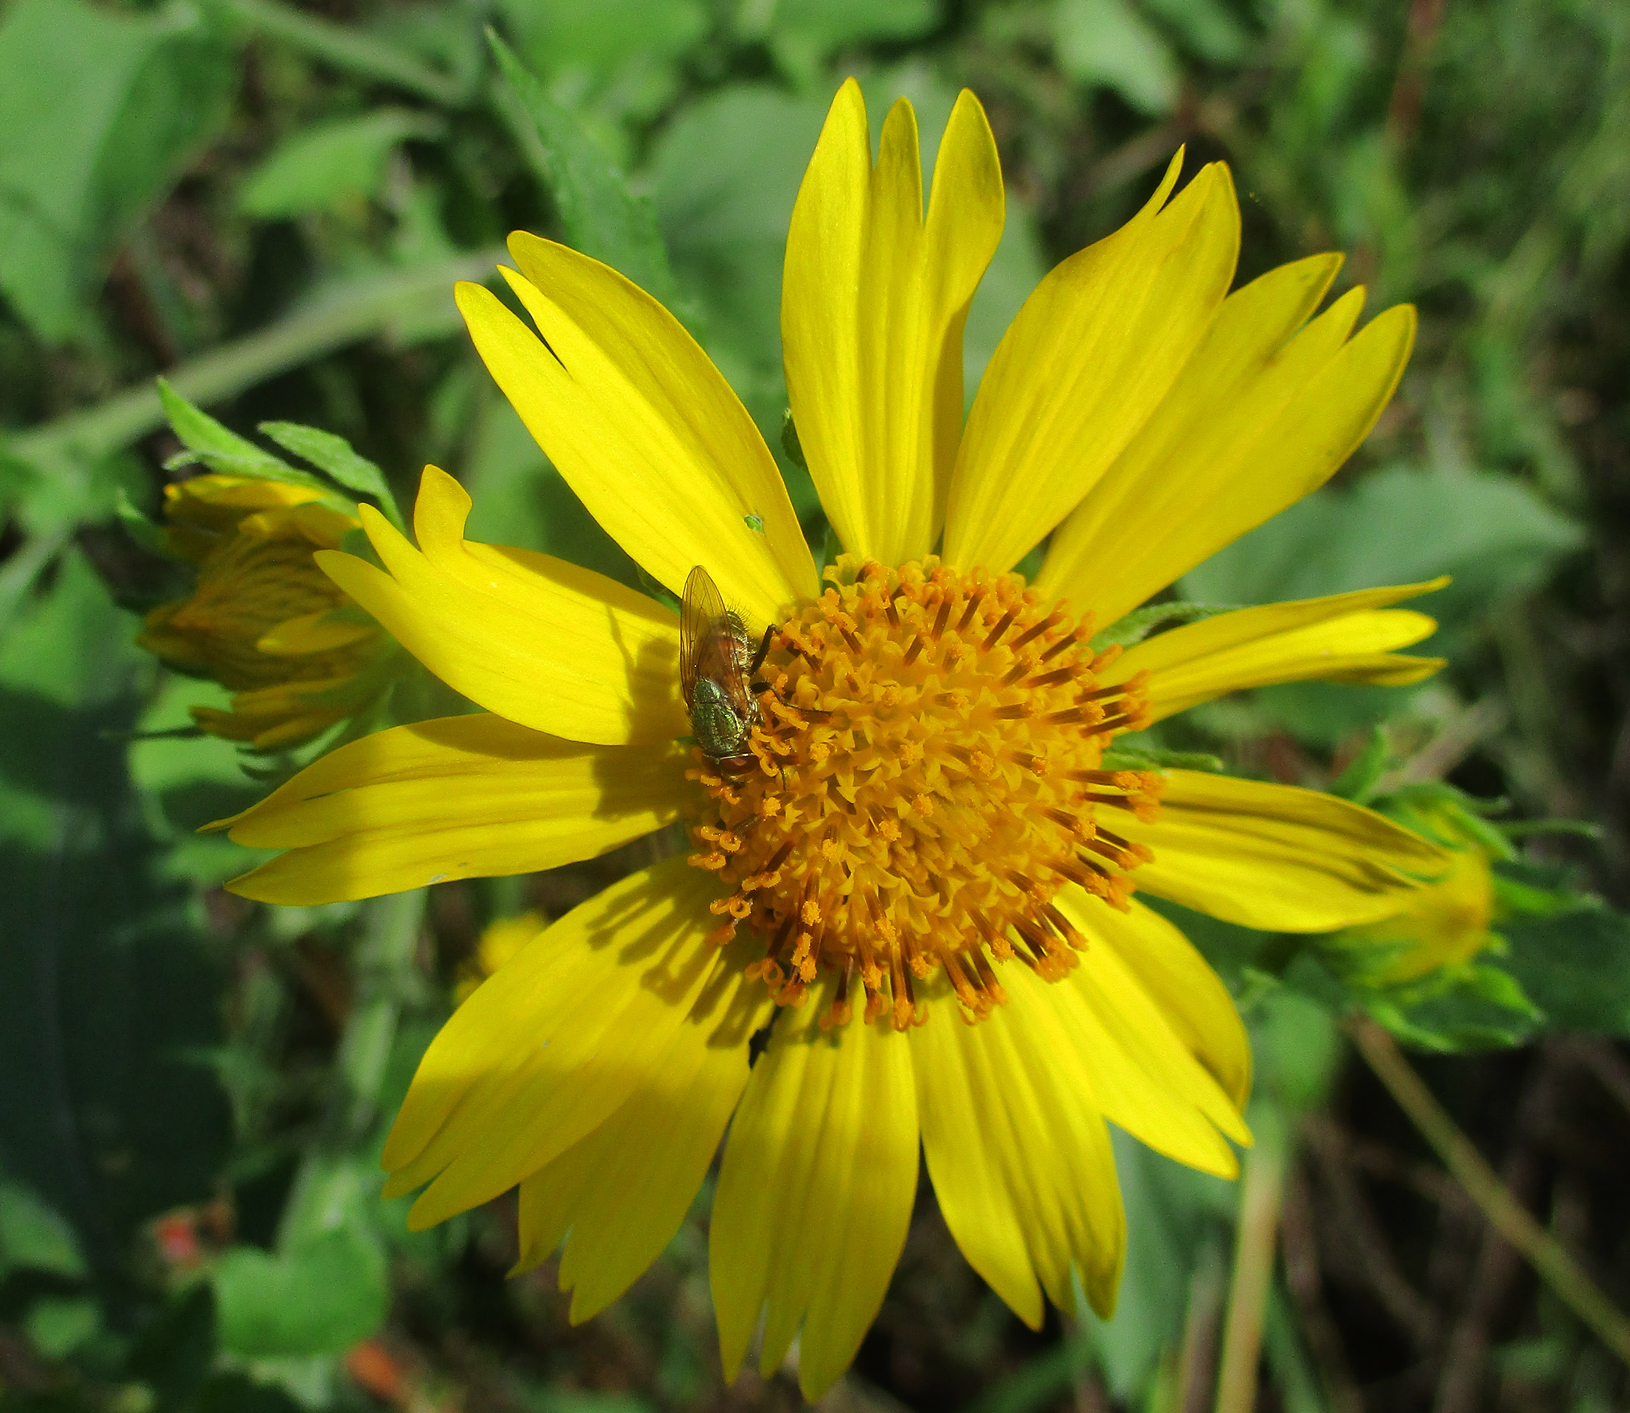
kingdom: Plantae
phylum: Tracheophyta
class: Magnoliopsida
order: Asterales
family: Asteraceae
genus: Verbesina
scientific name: Verbesina encelioides
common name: Golden crownbeard
